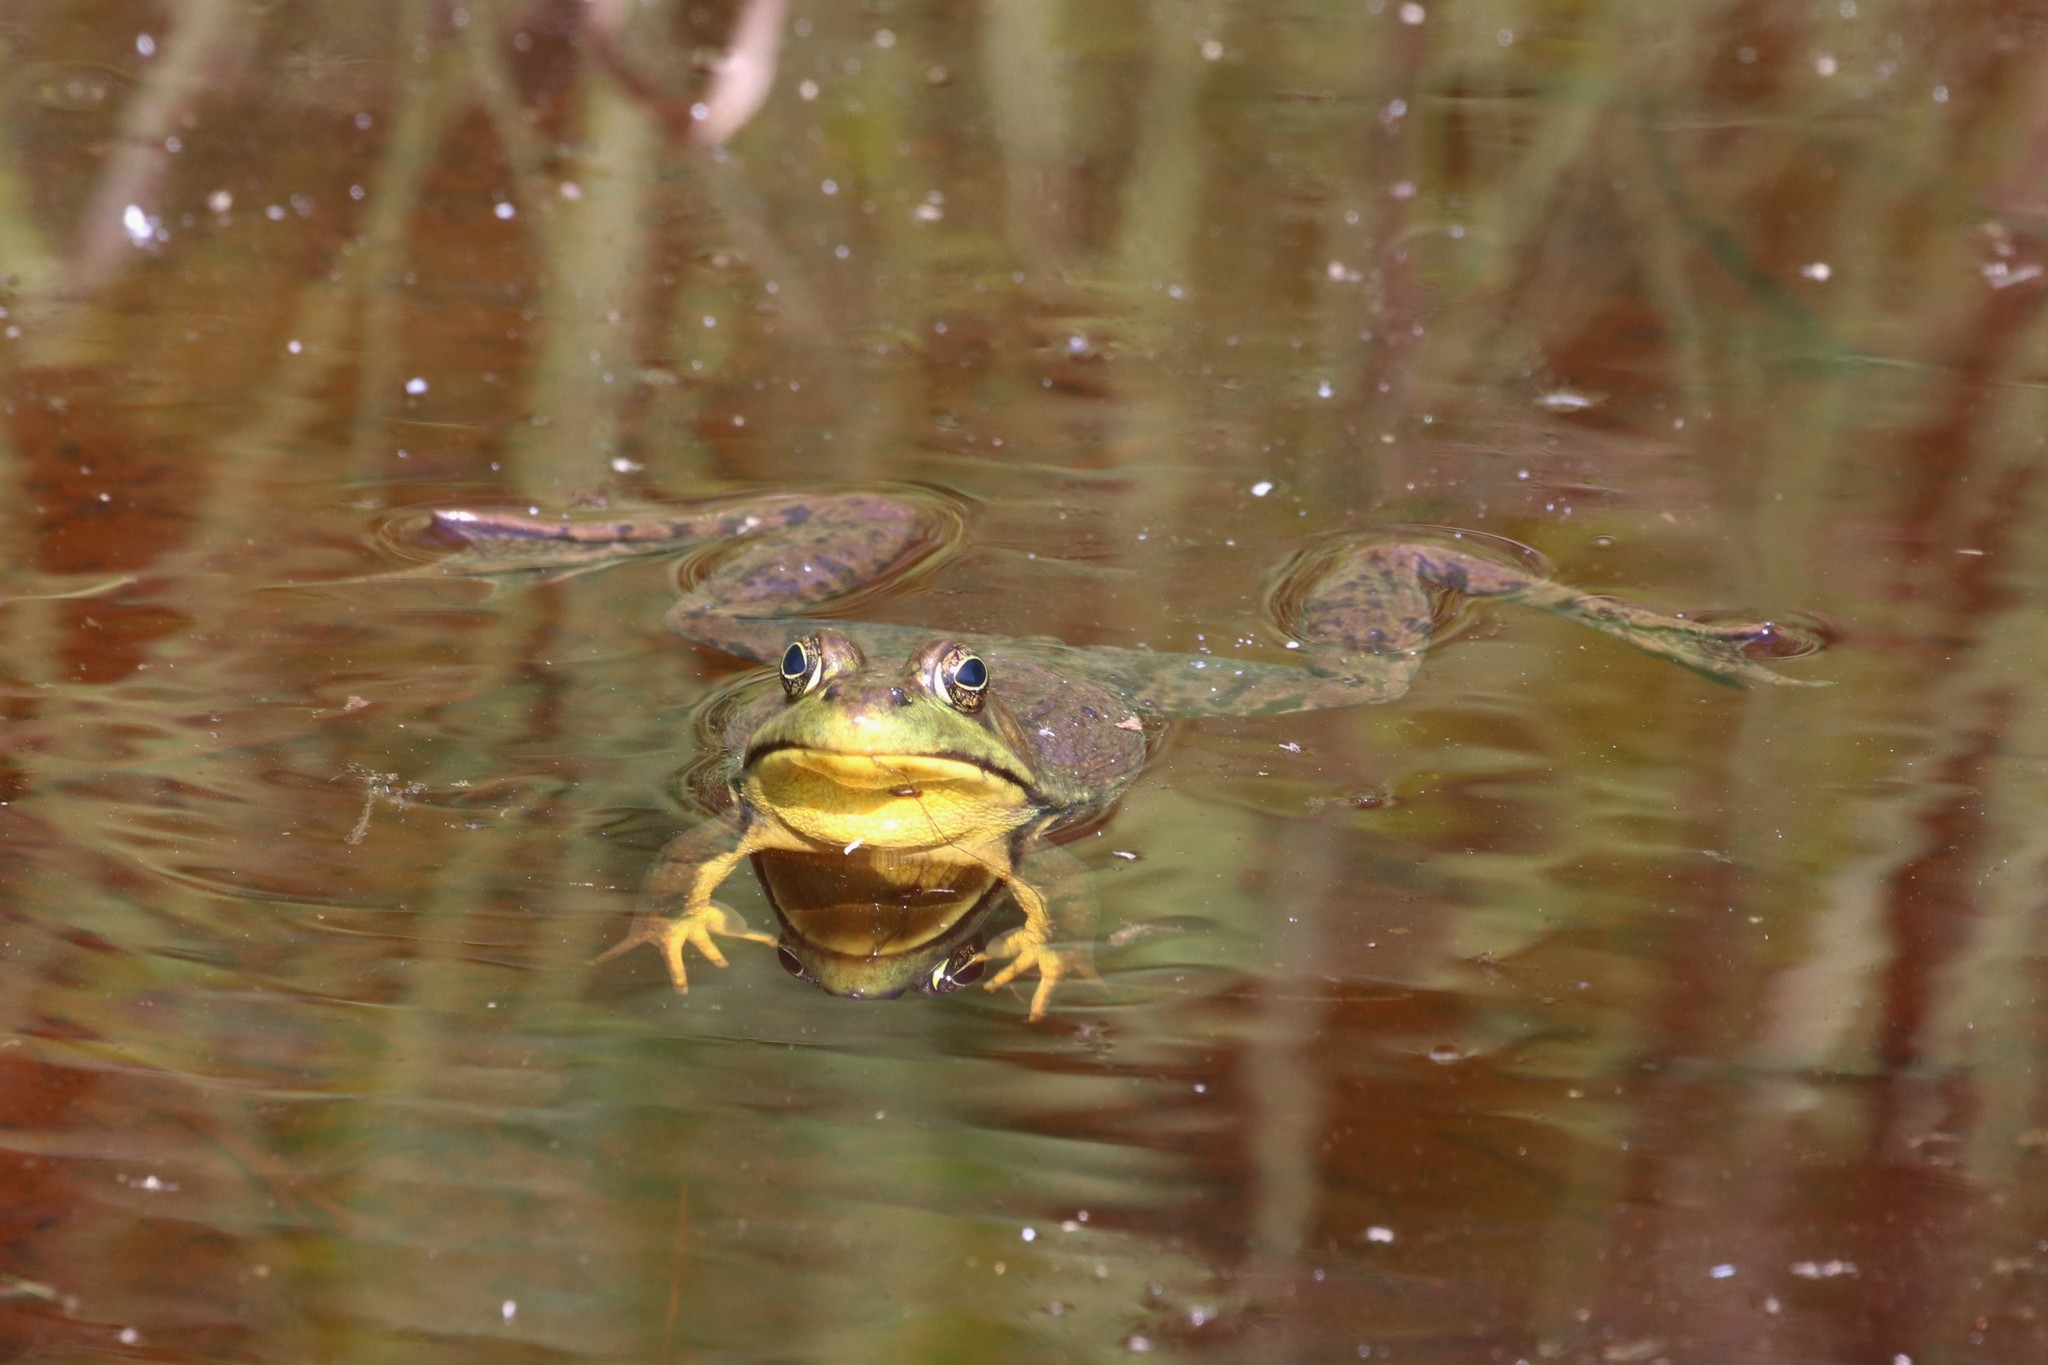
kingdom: Animalia
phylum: Chordata
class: Amphibia
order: Anura
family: Ranidae
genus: Lithobates
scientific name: Lithobates clamitans
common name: Green frog
